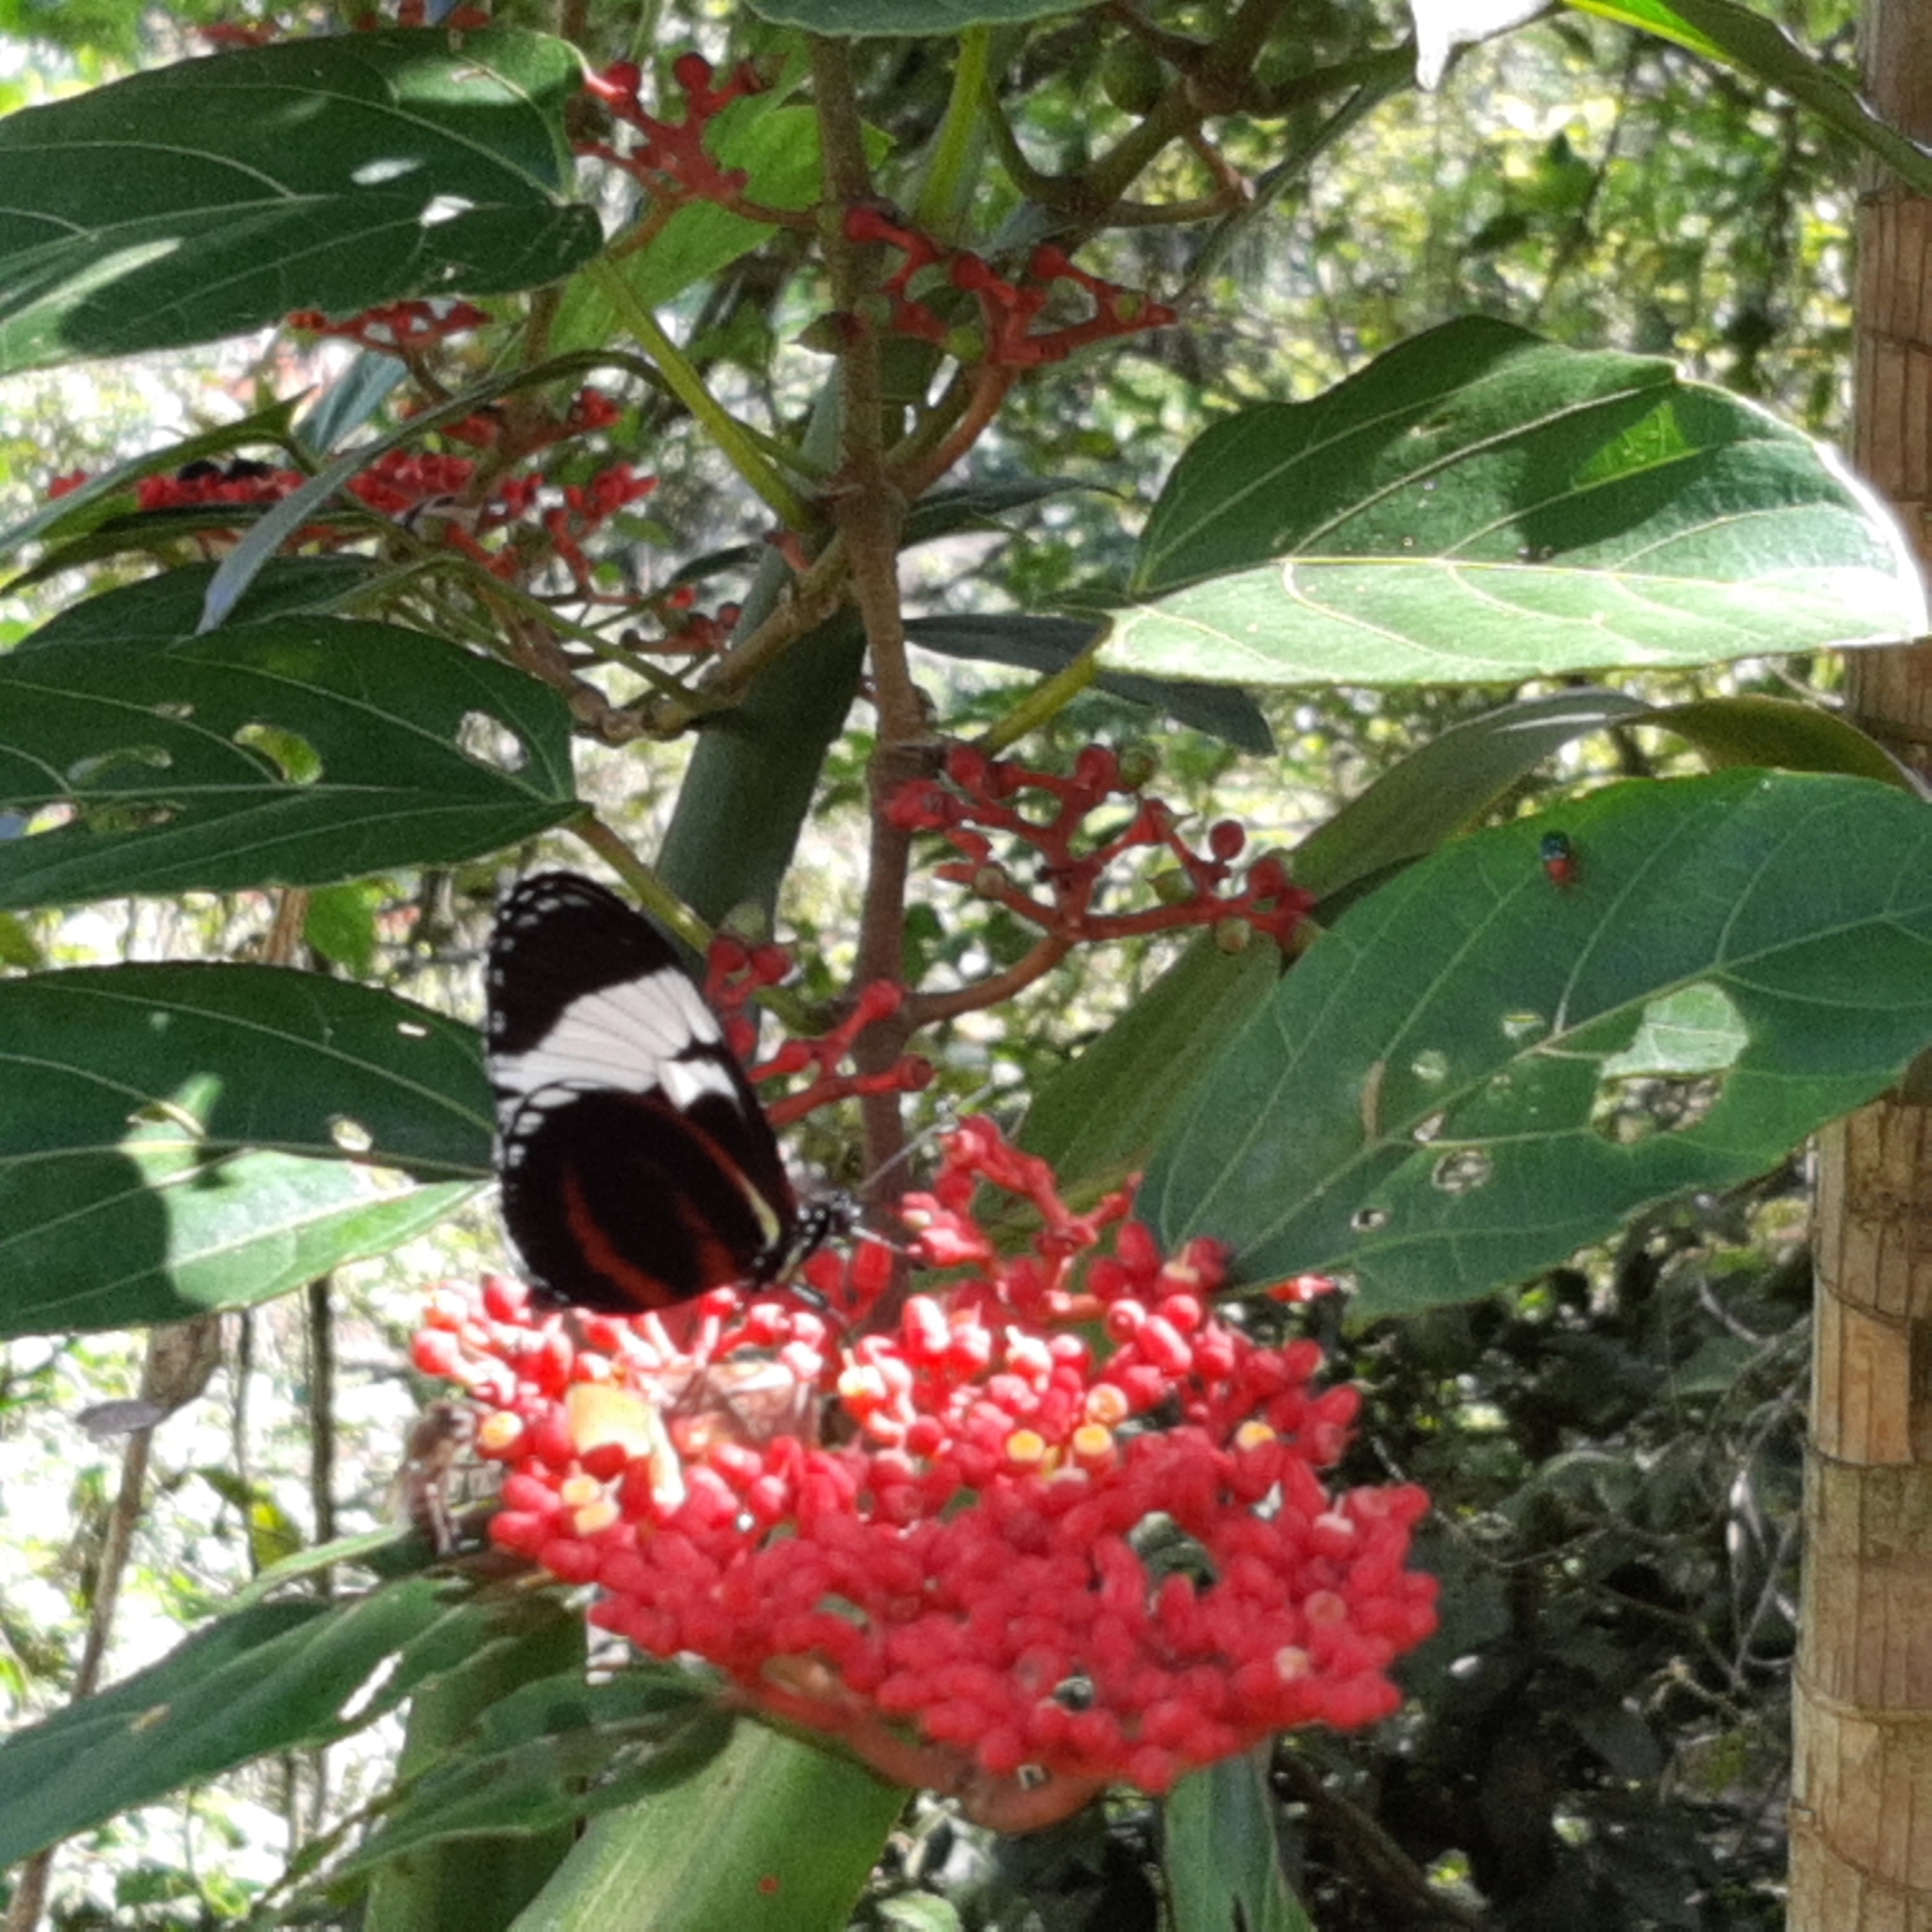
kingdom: Animalia
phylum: Arthropoda
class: Insecta
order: Lepidoptera
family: Nymphalidae
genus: Heliconius
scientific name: Heliconius cydno
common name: Cydno longwing
